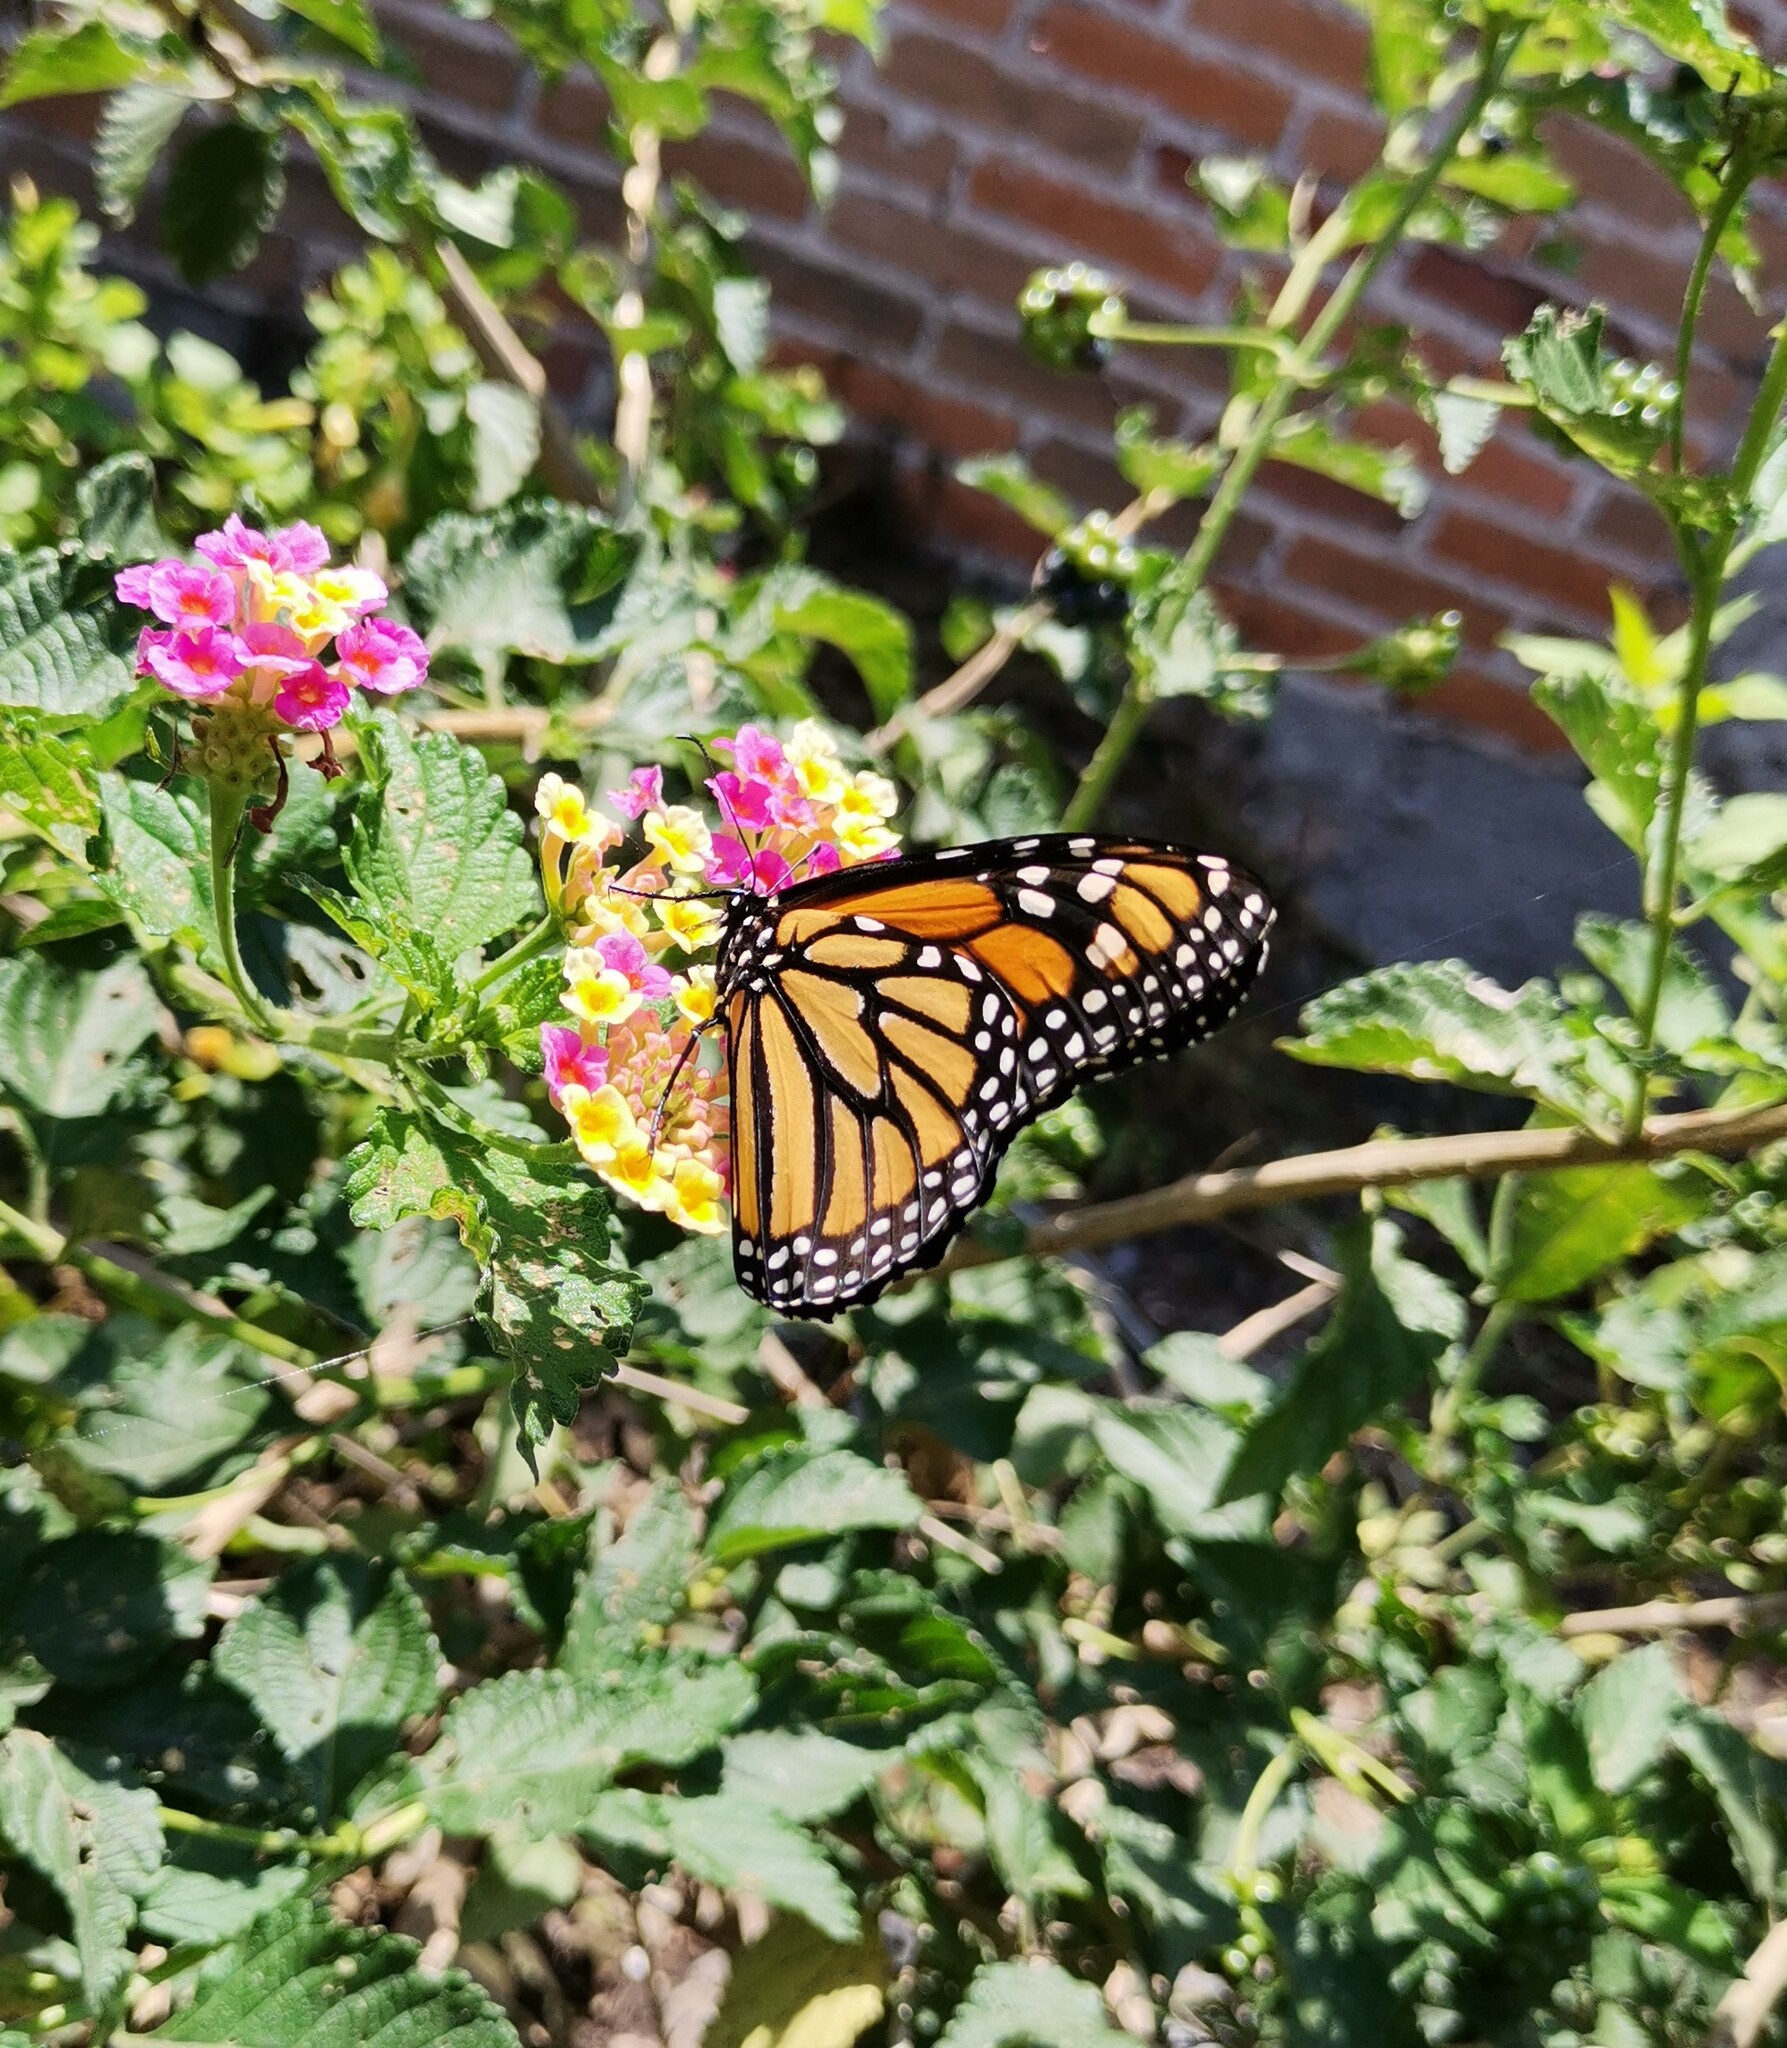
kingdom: Animalia
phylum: Arthropoda
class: Insecta
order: Lepidoptera
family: Nymphalidae
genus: Danaus
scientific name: Danaus plexippus
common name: Monarch
